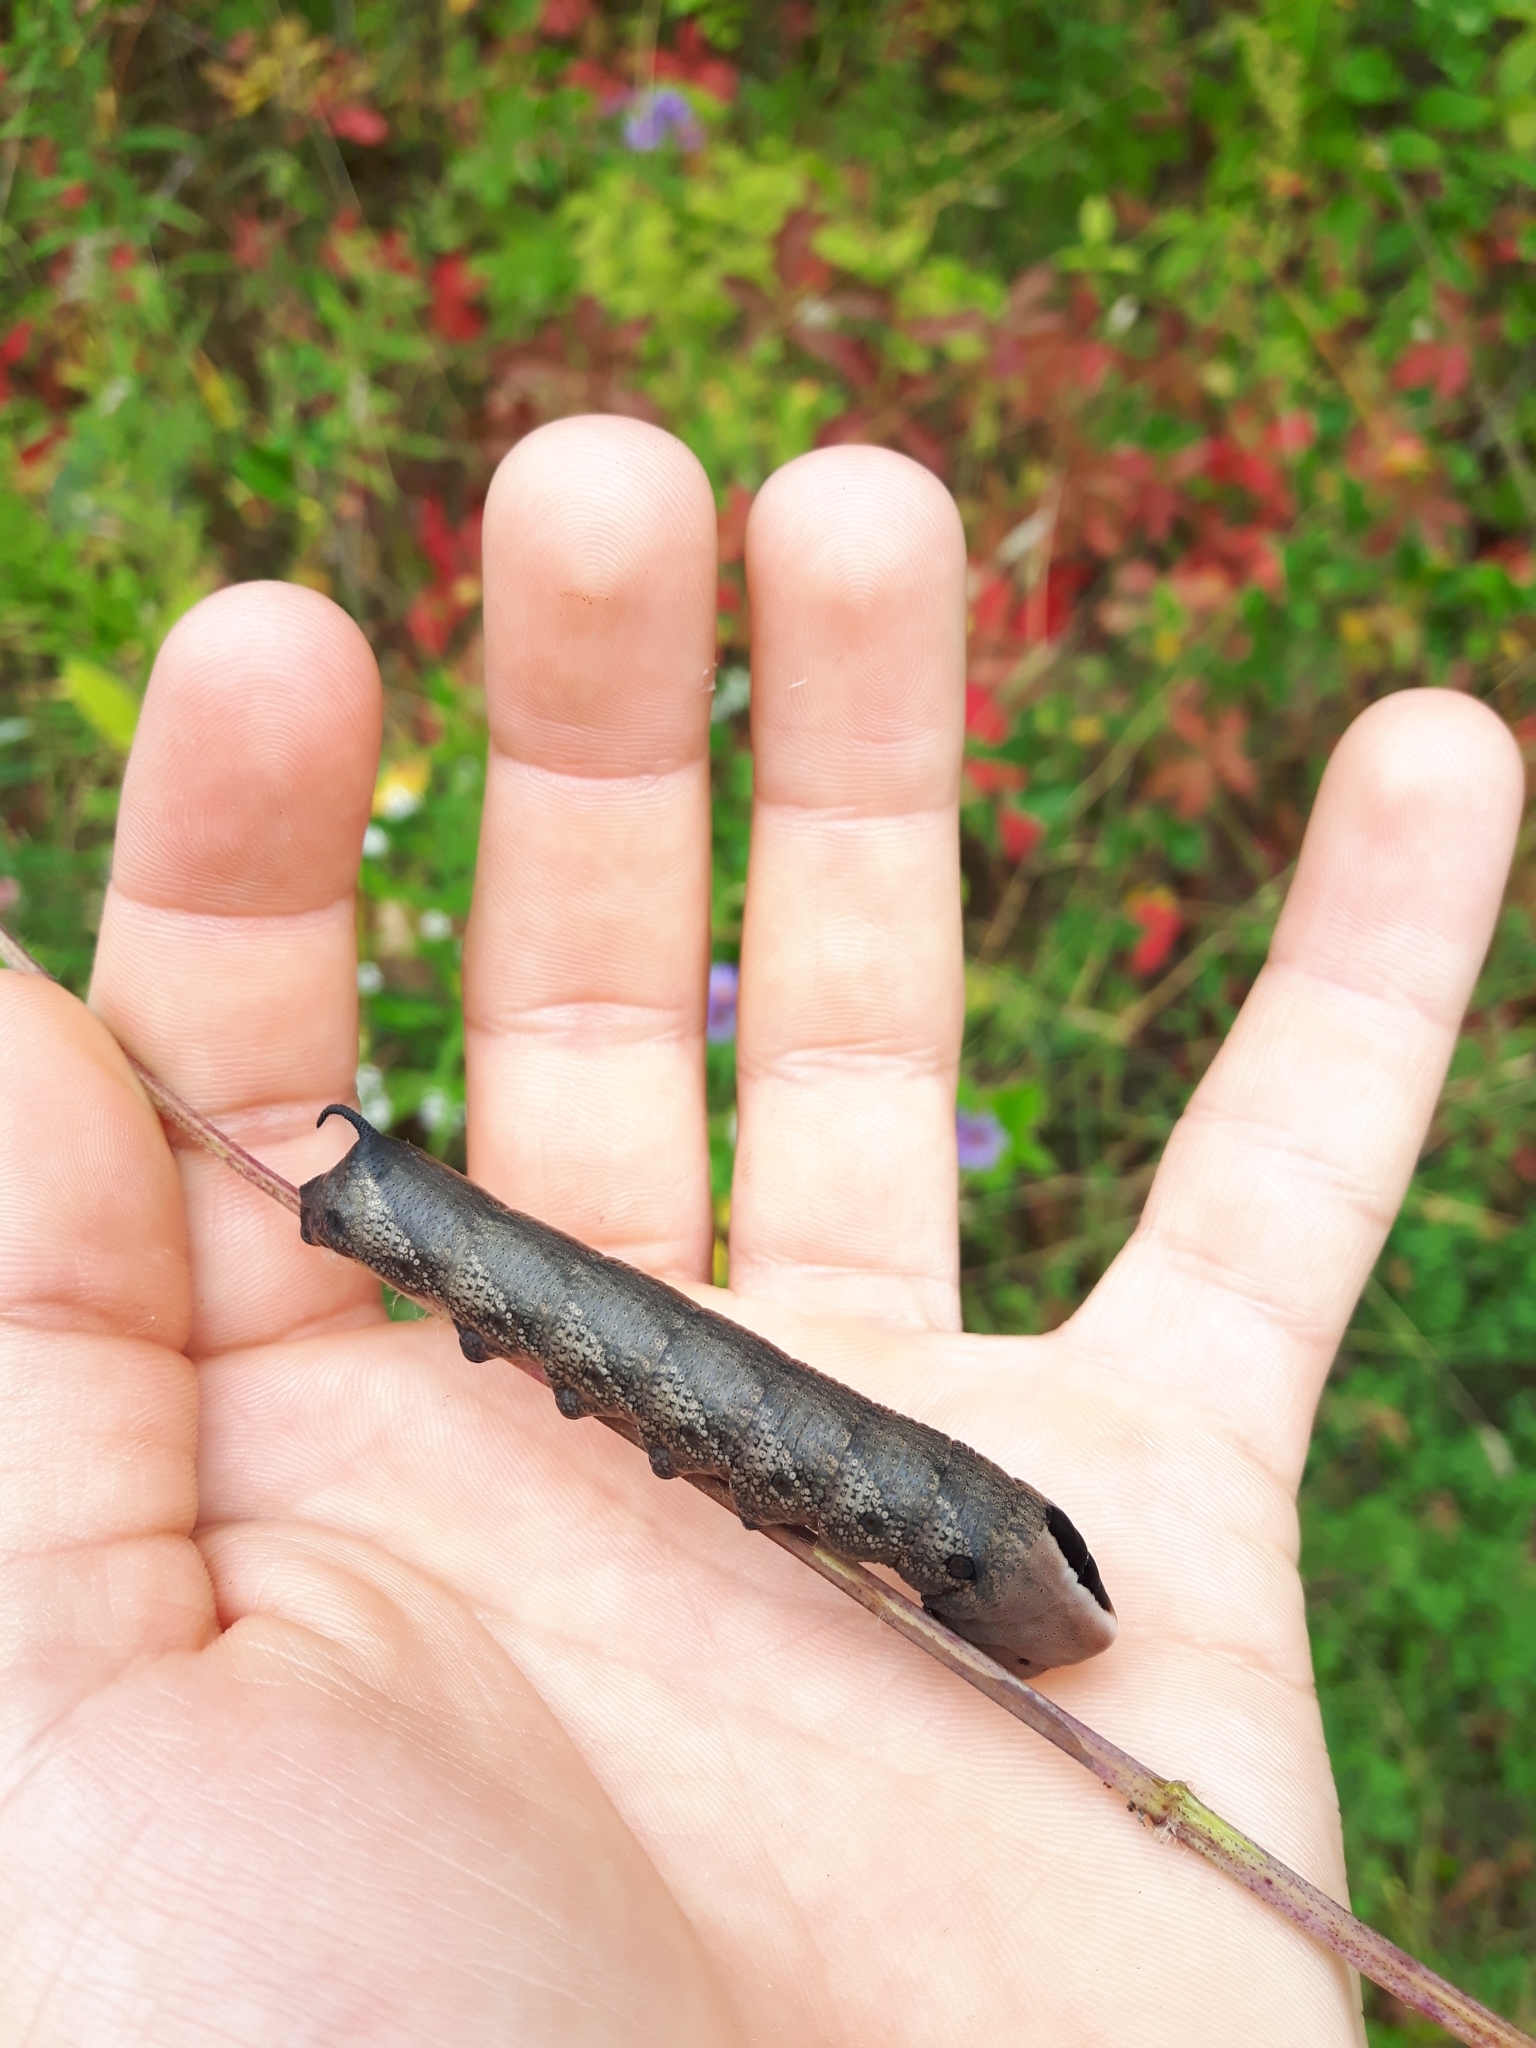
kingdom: Animalia
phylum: Arthropoda
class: Insecta
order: Lepidoptera
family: Sphingidae
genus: Lintneria
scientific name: Lintneria eremitus
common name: Hermit sphinx
